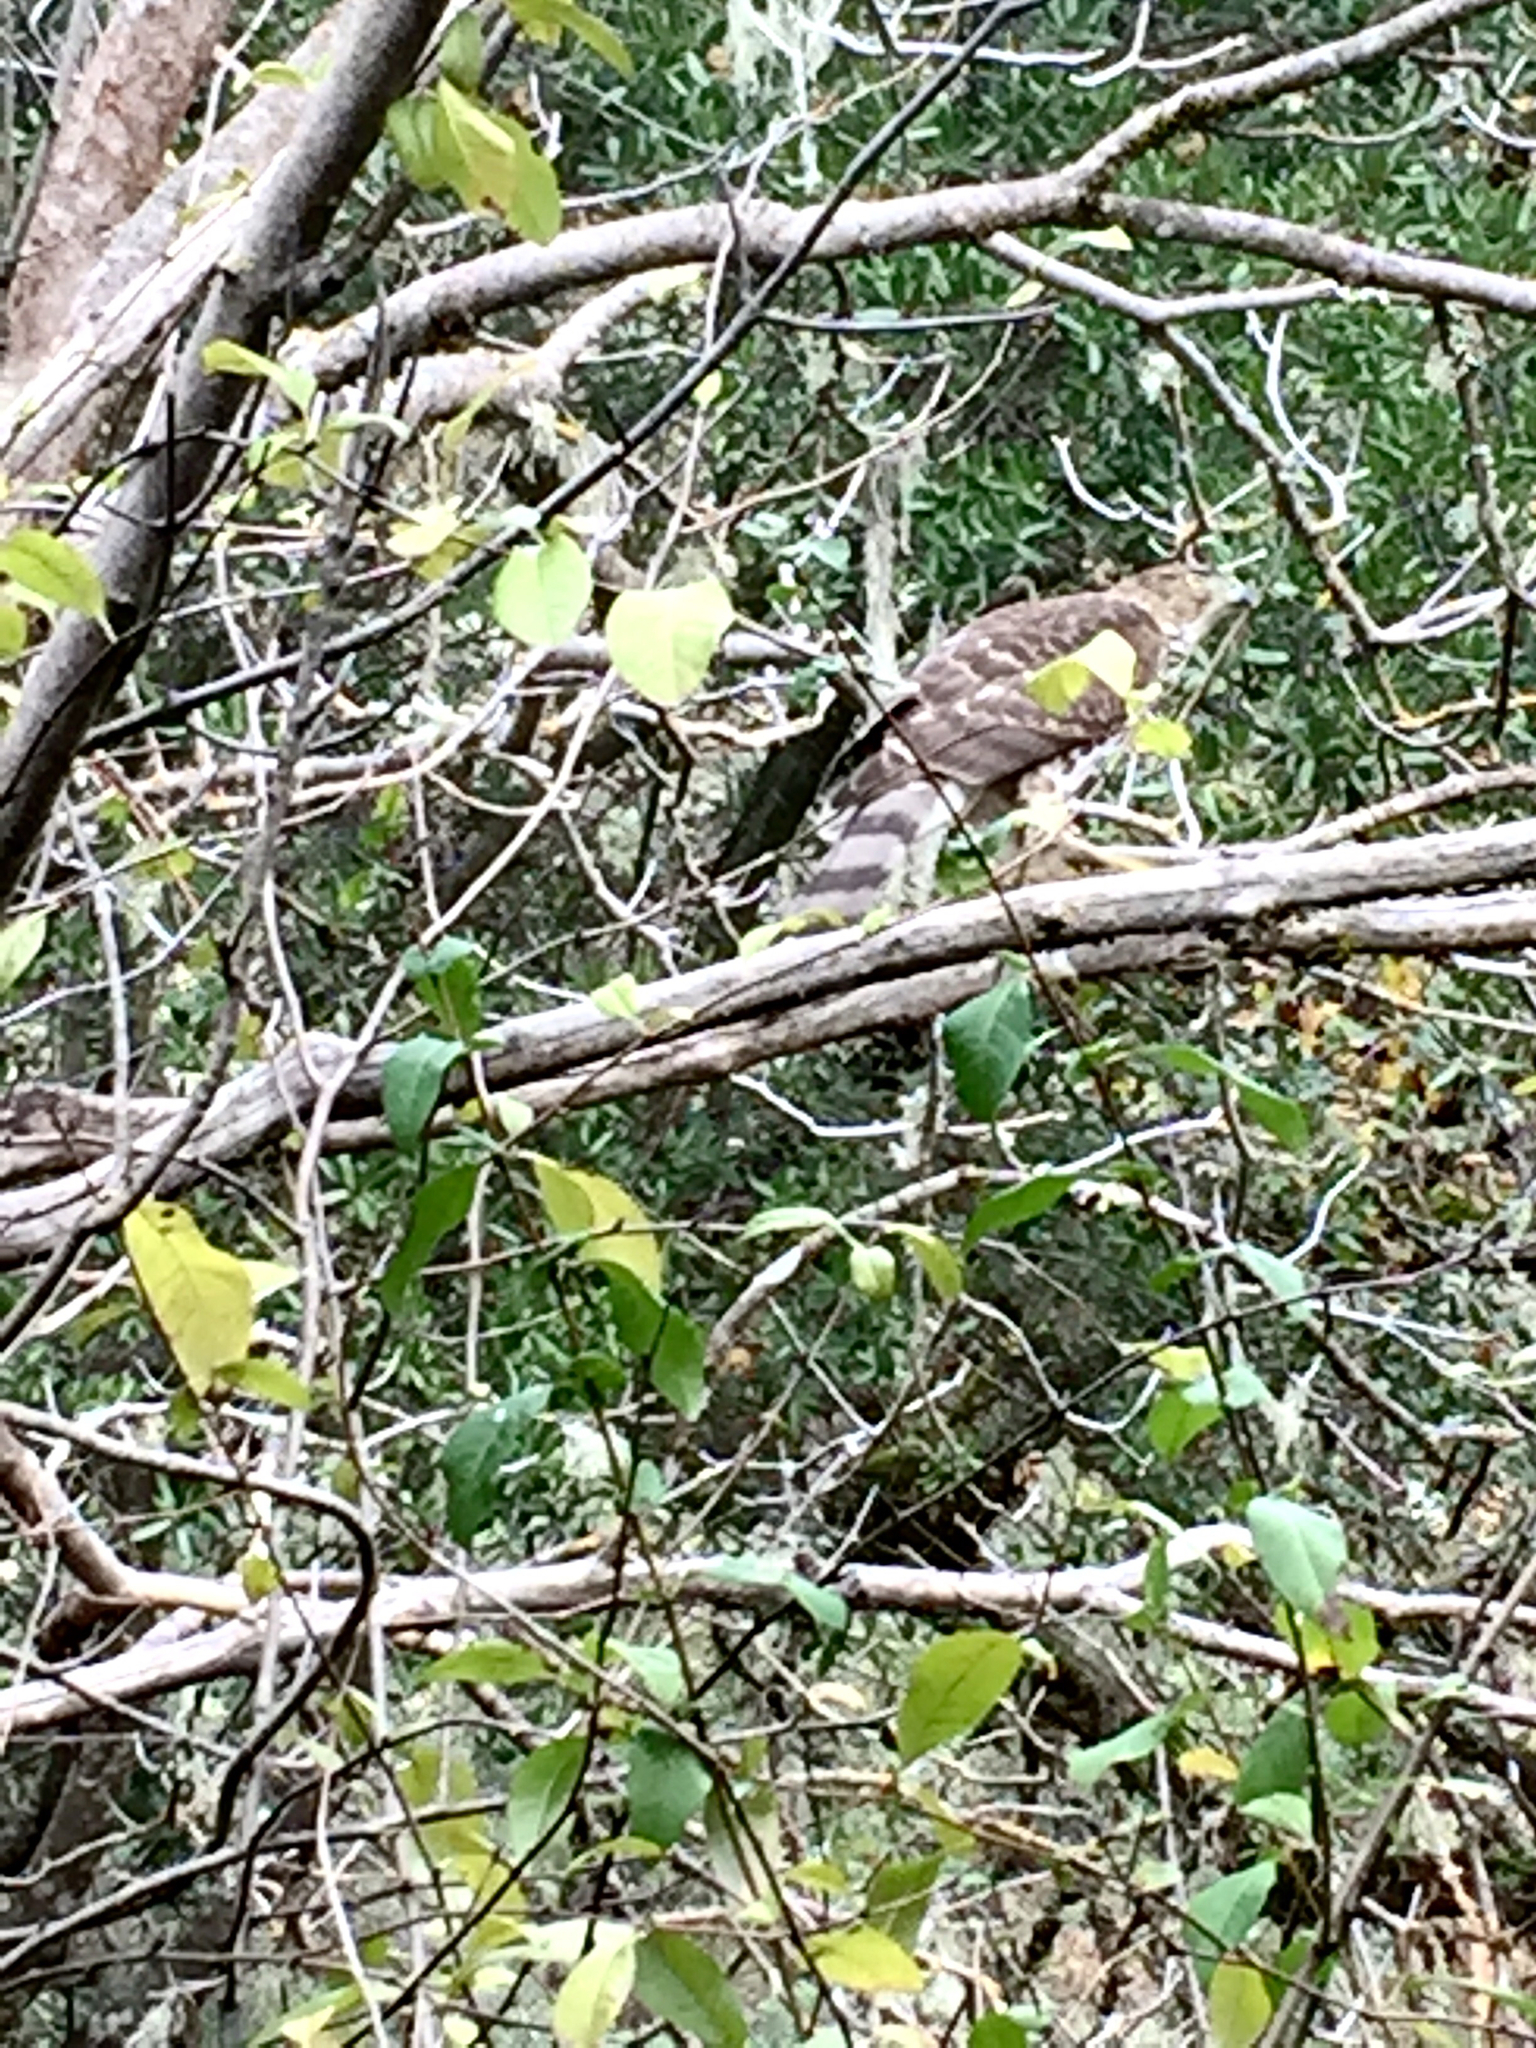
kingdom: Animalia
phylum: Chordata
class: Aves
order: Accipitriformes
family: Accipitridae
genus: Accipiter
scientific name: Accipiter cooperii
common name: Cooper's hawk
